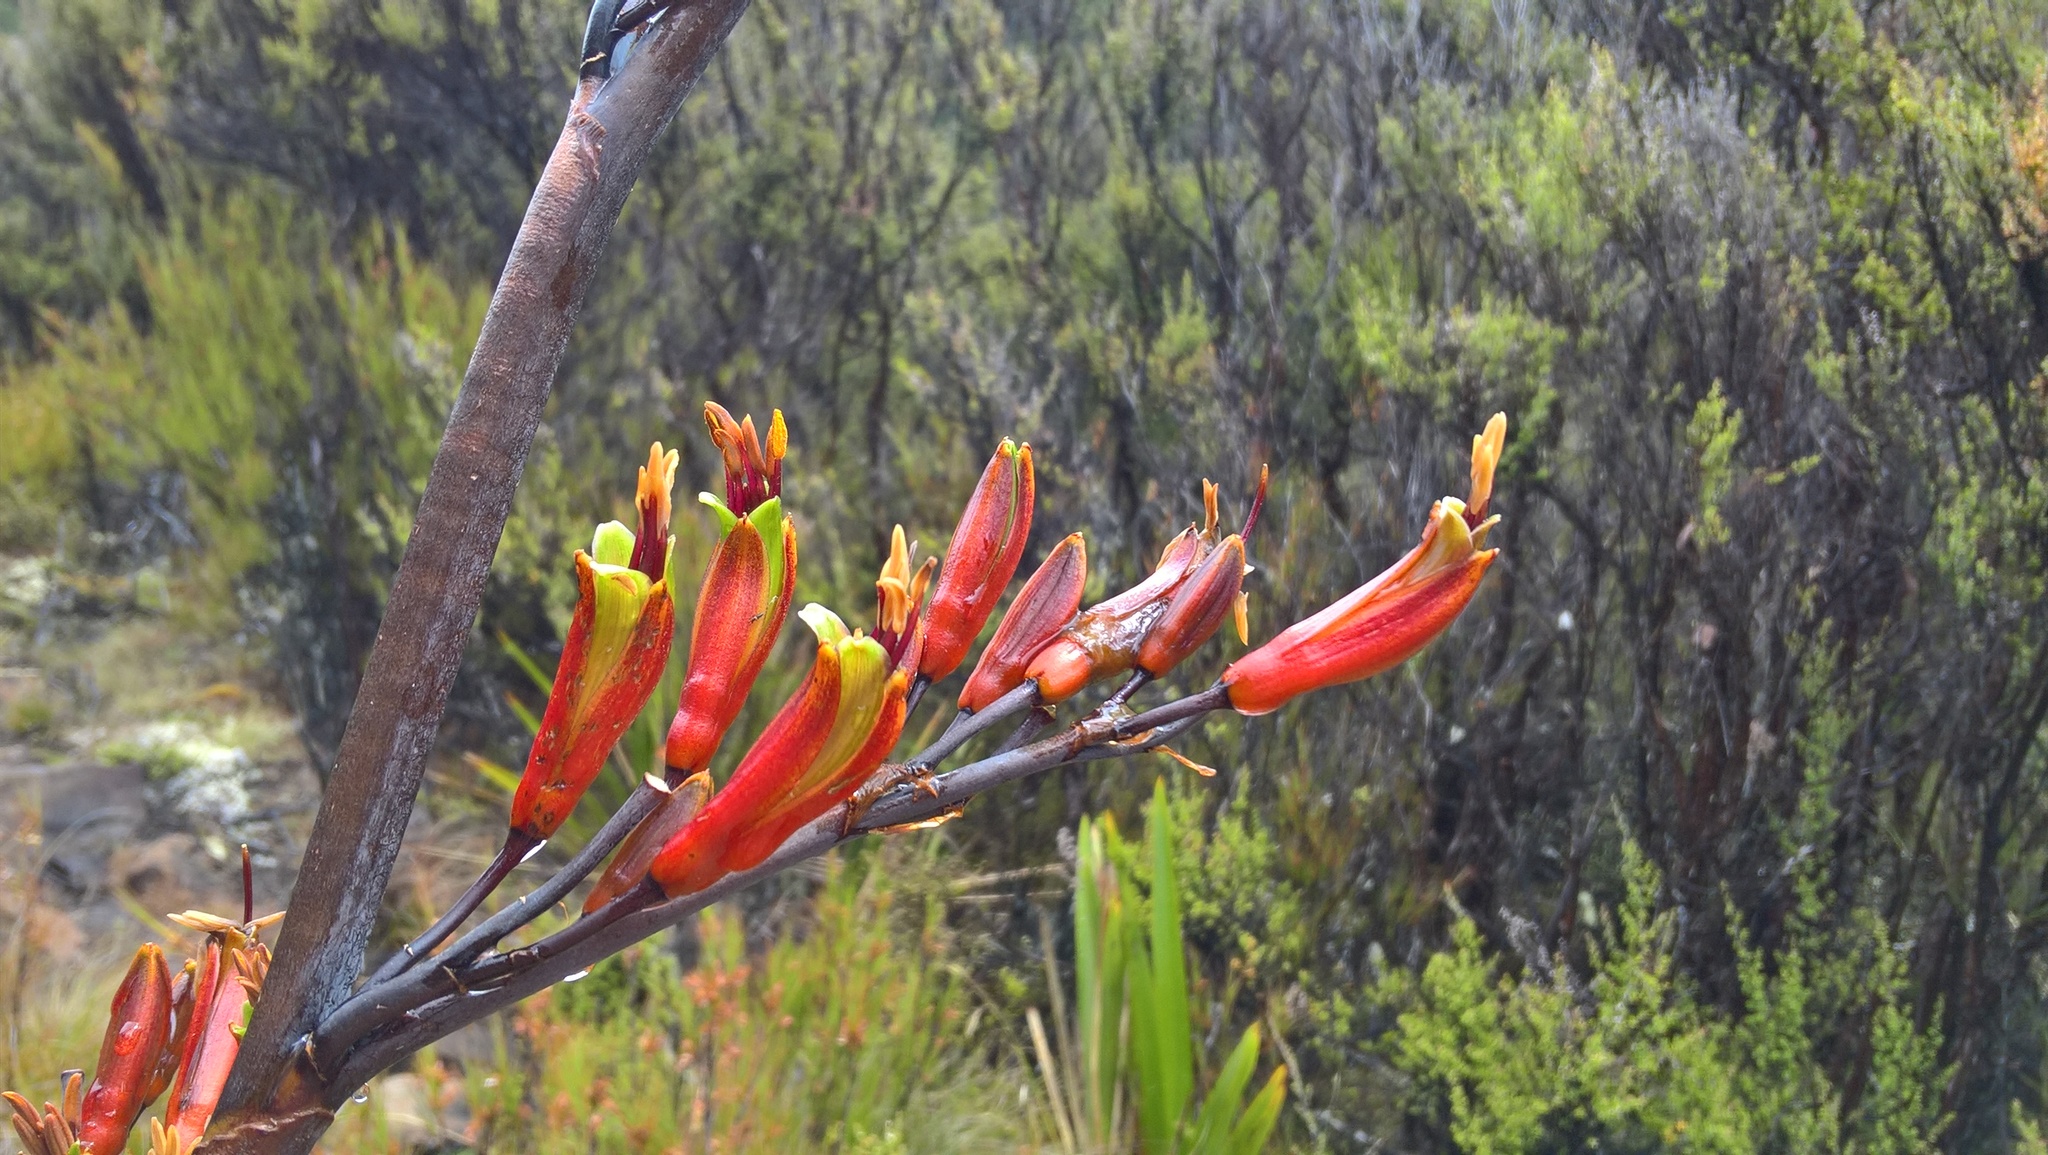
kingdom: Plantae
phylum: Tracheophyta
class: Liliopsida
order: Asparagales
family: Asphodelaceae
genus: Phormium
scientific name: Phormium colensoi
